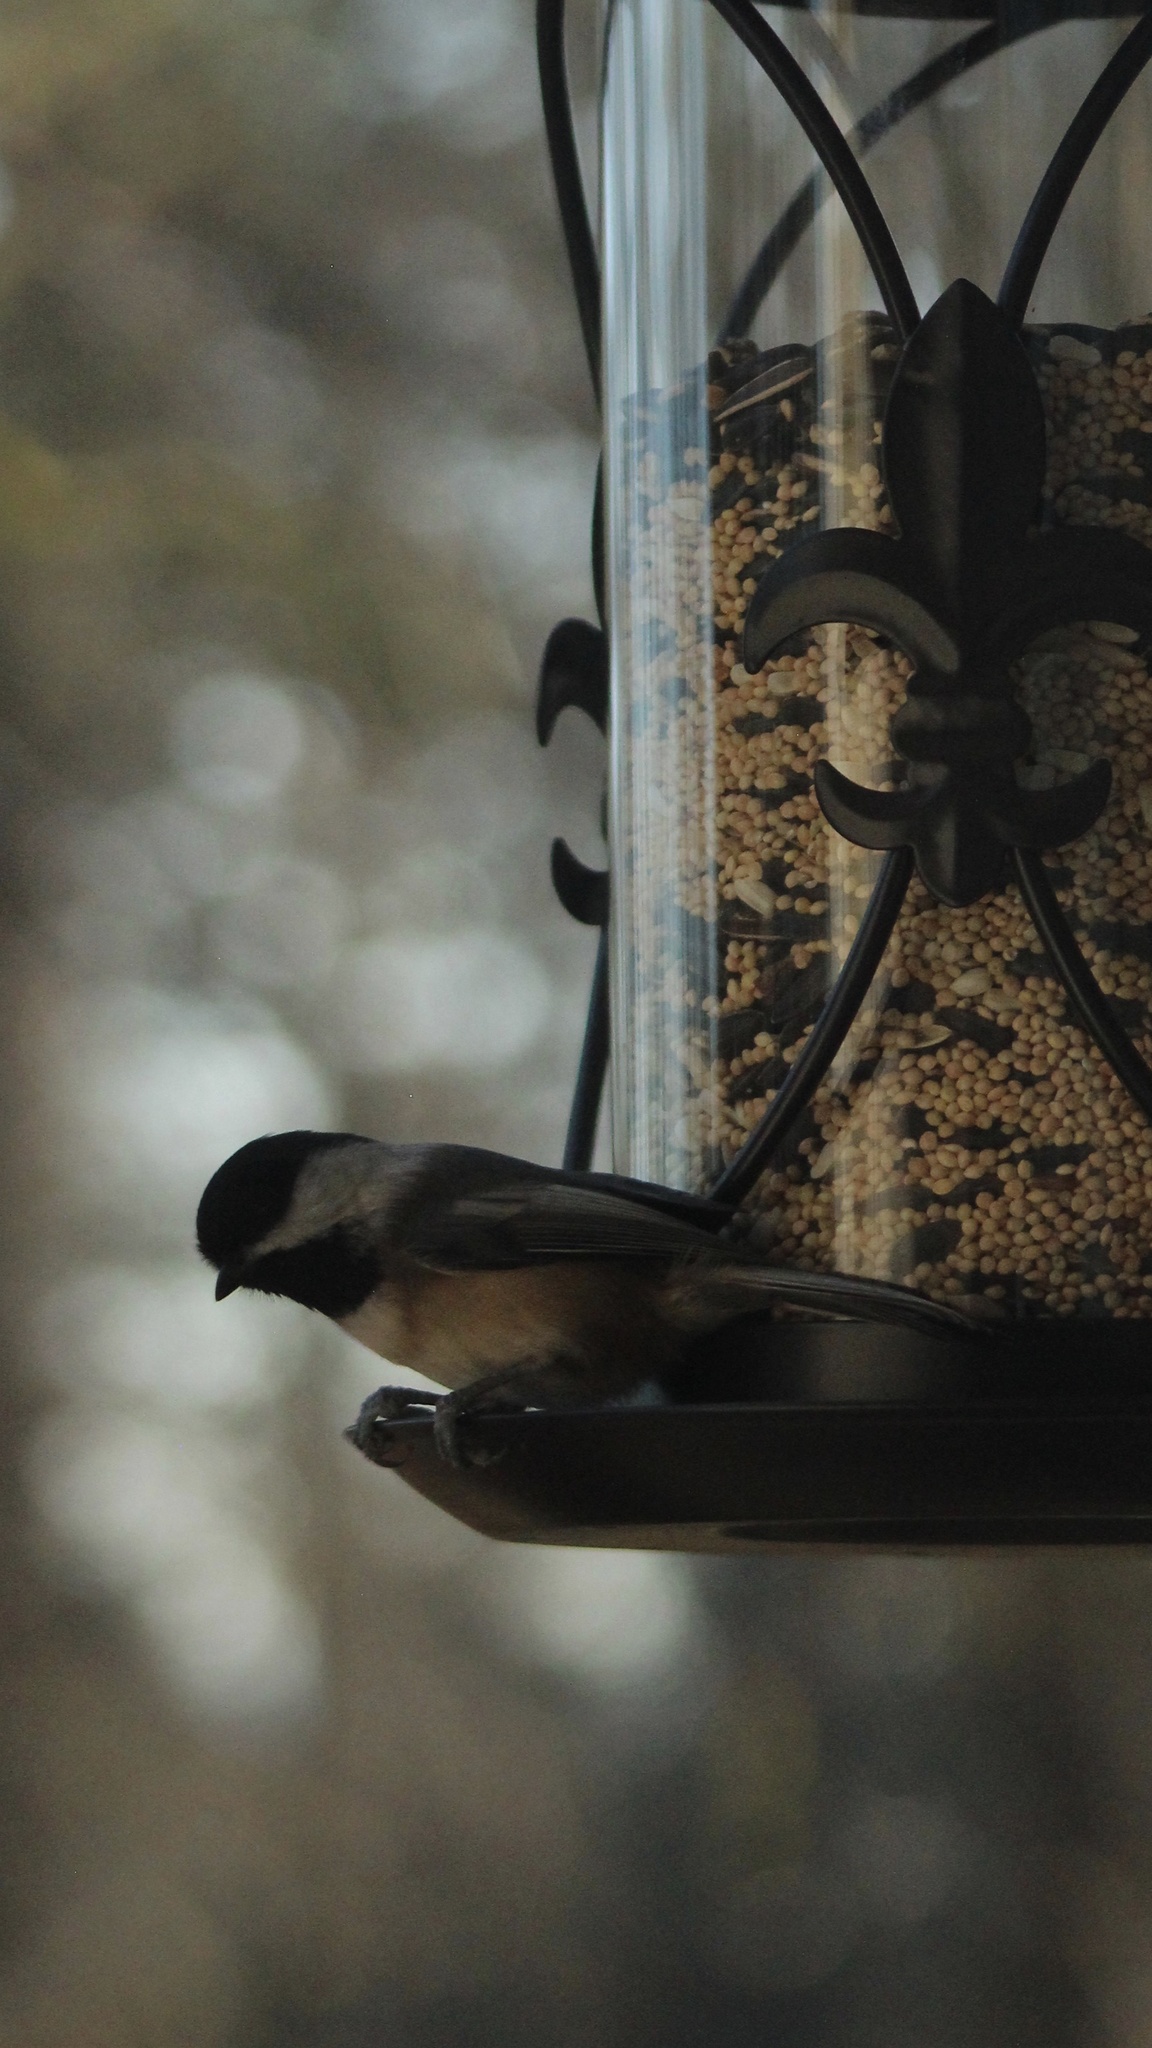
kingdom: Animalia
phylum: Chordata
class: Aves
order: Passeriformes
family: Paridae
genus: Poecile
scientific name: Poecile atricapillus
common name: Black-capped chickadee
